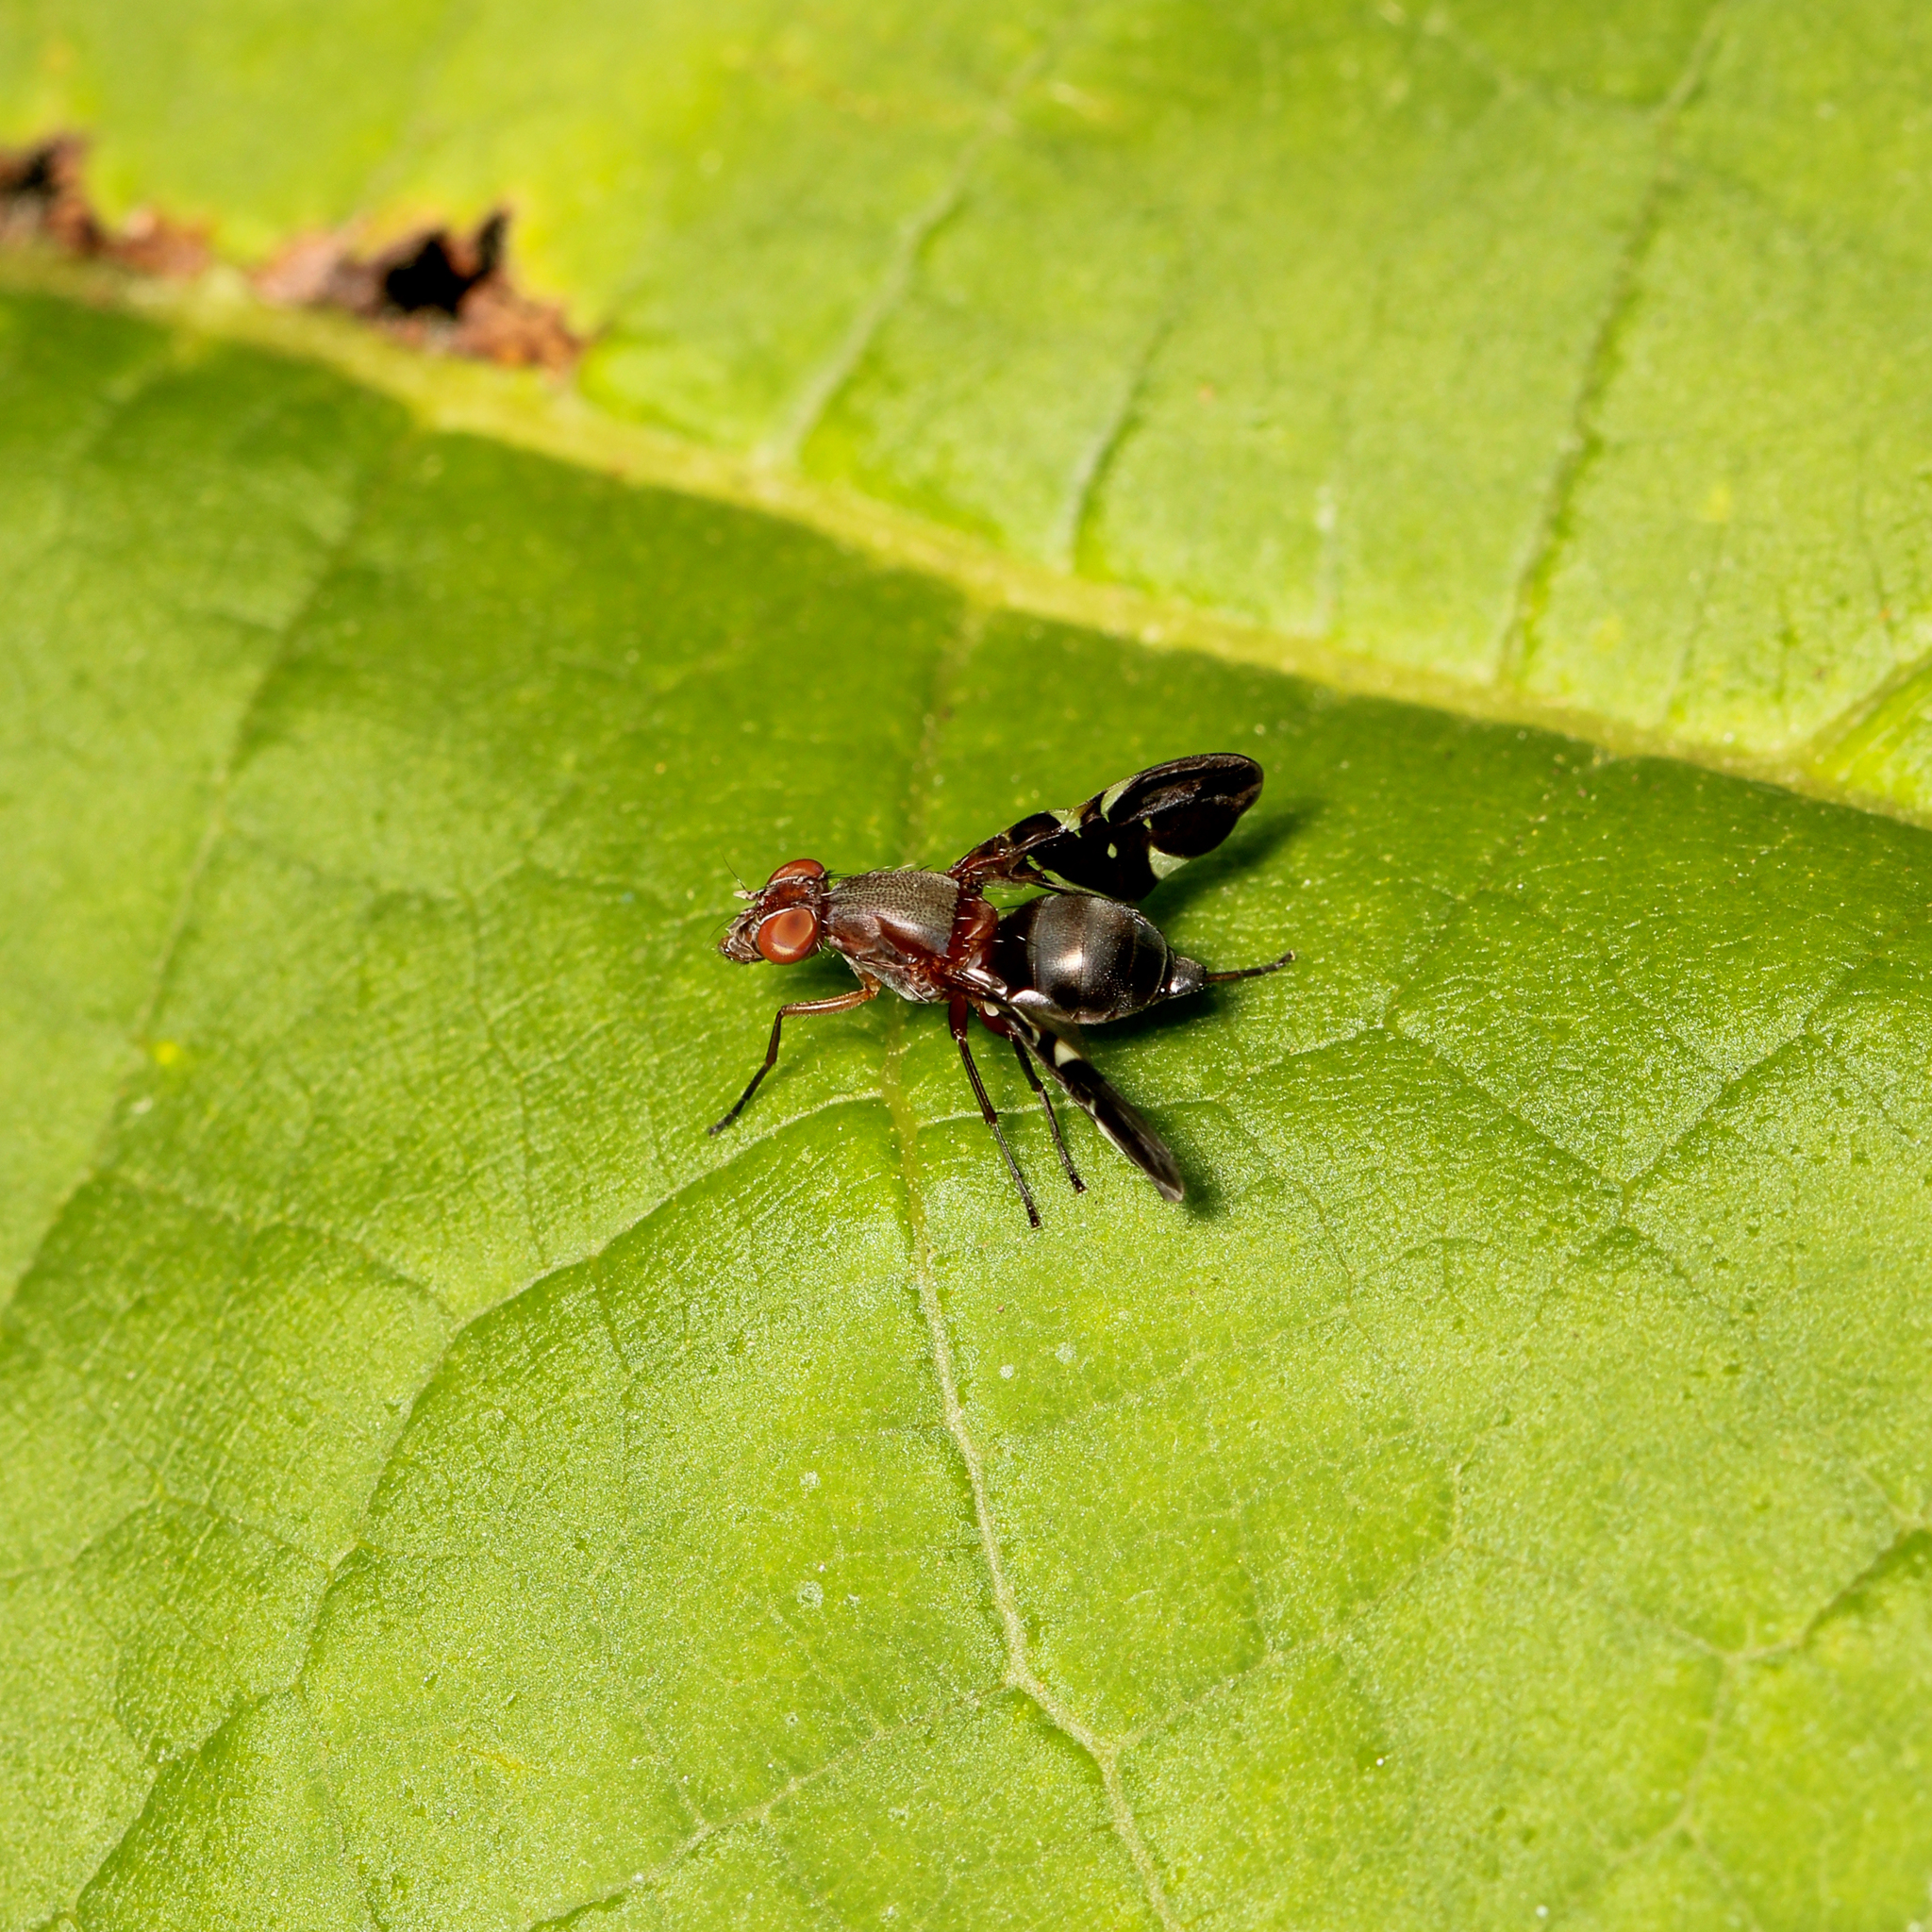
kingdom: Animalia
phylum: Arthropoda
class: Insecta
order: Diptera
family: Ulidiidae
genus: Delphinia
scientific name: Delphinia picta
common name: Common picture-winged fly
